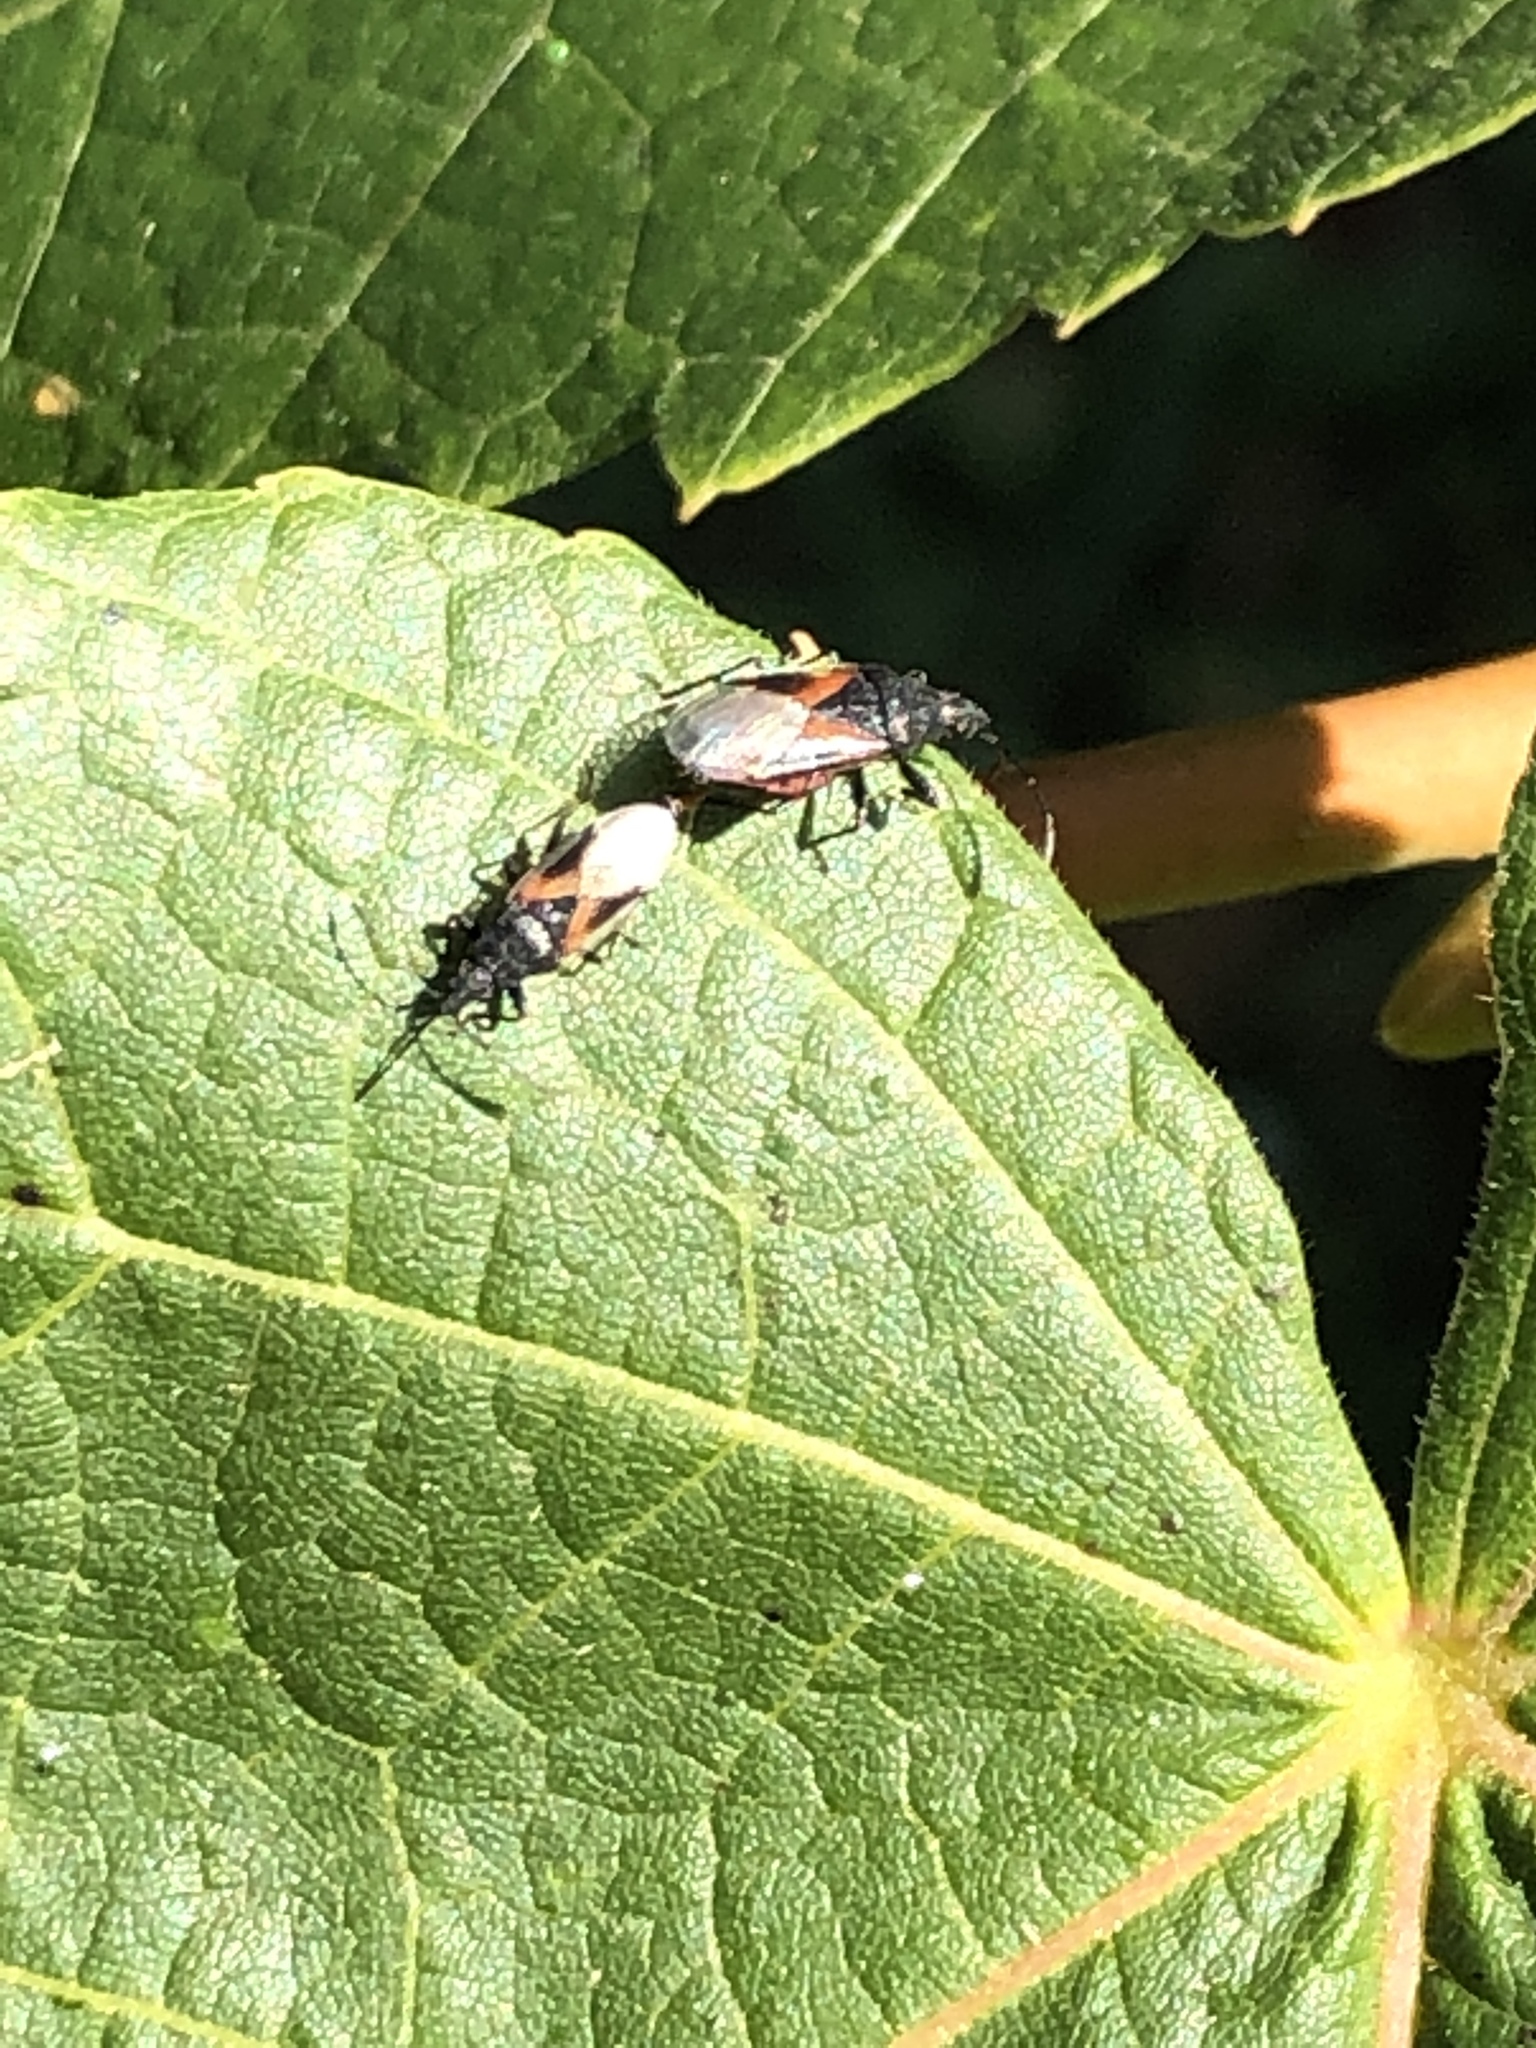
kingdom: Animalia
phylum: Arthropoda
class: Insecta
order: Hemiptera
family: Oxycarenidae
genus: Oxycarenus
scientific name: Oxycarenus lavaterae
